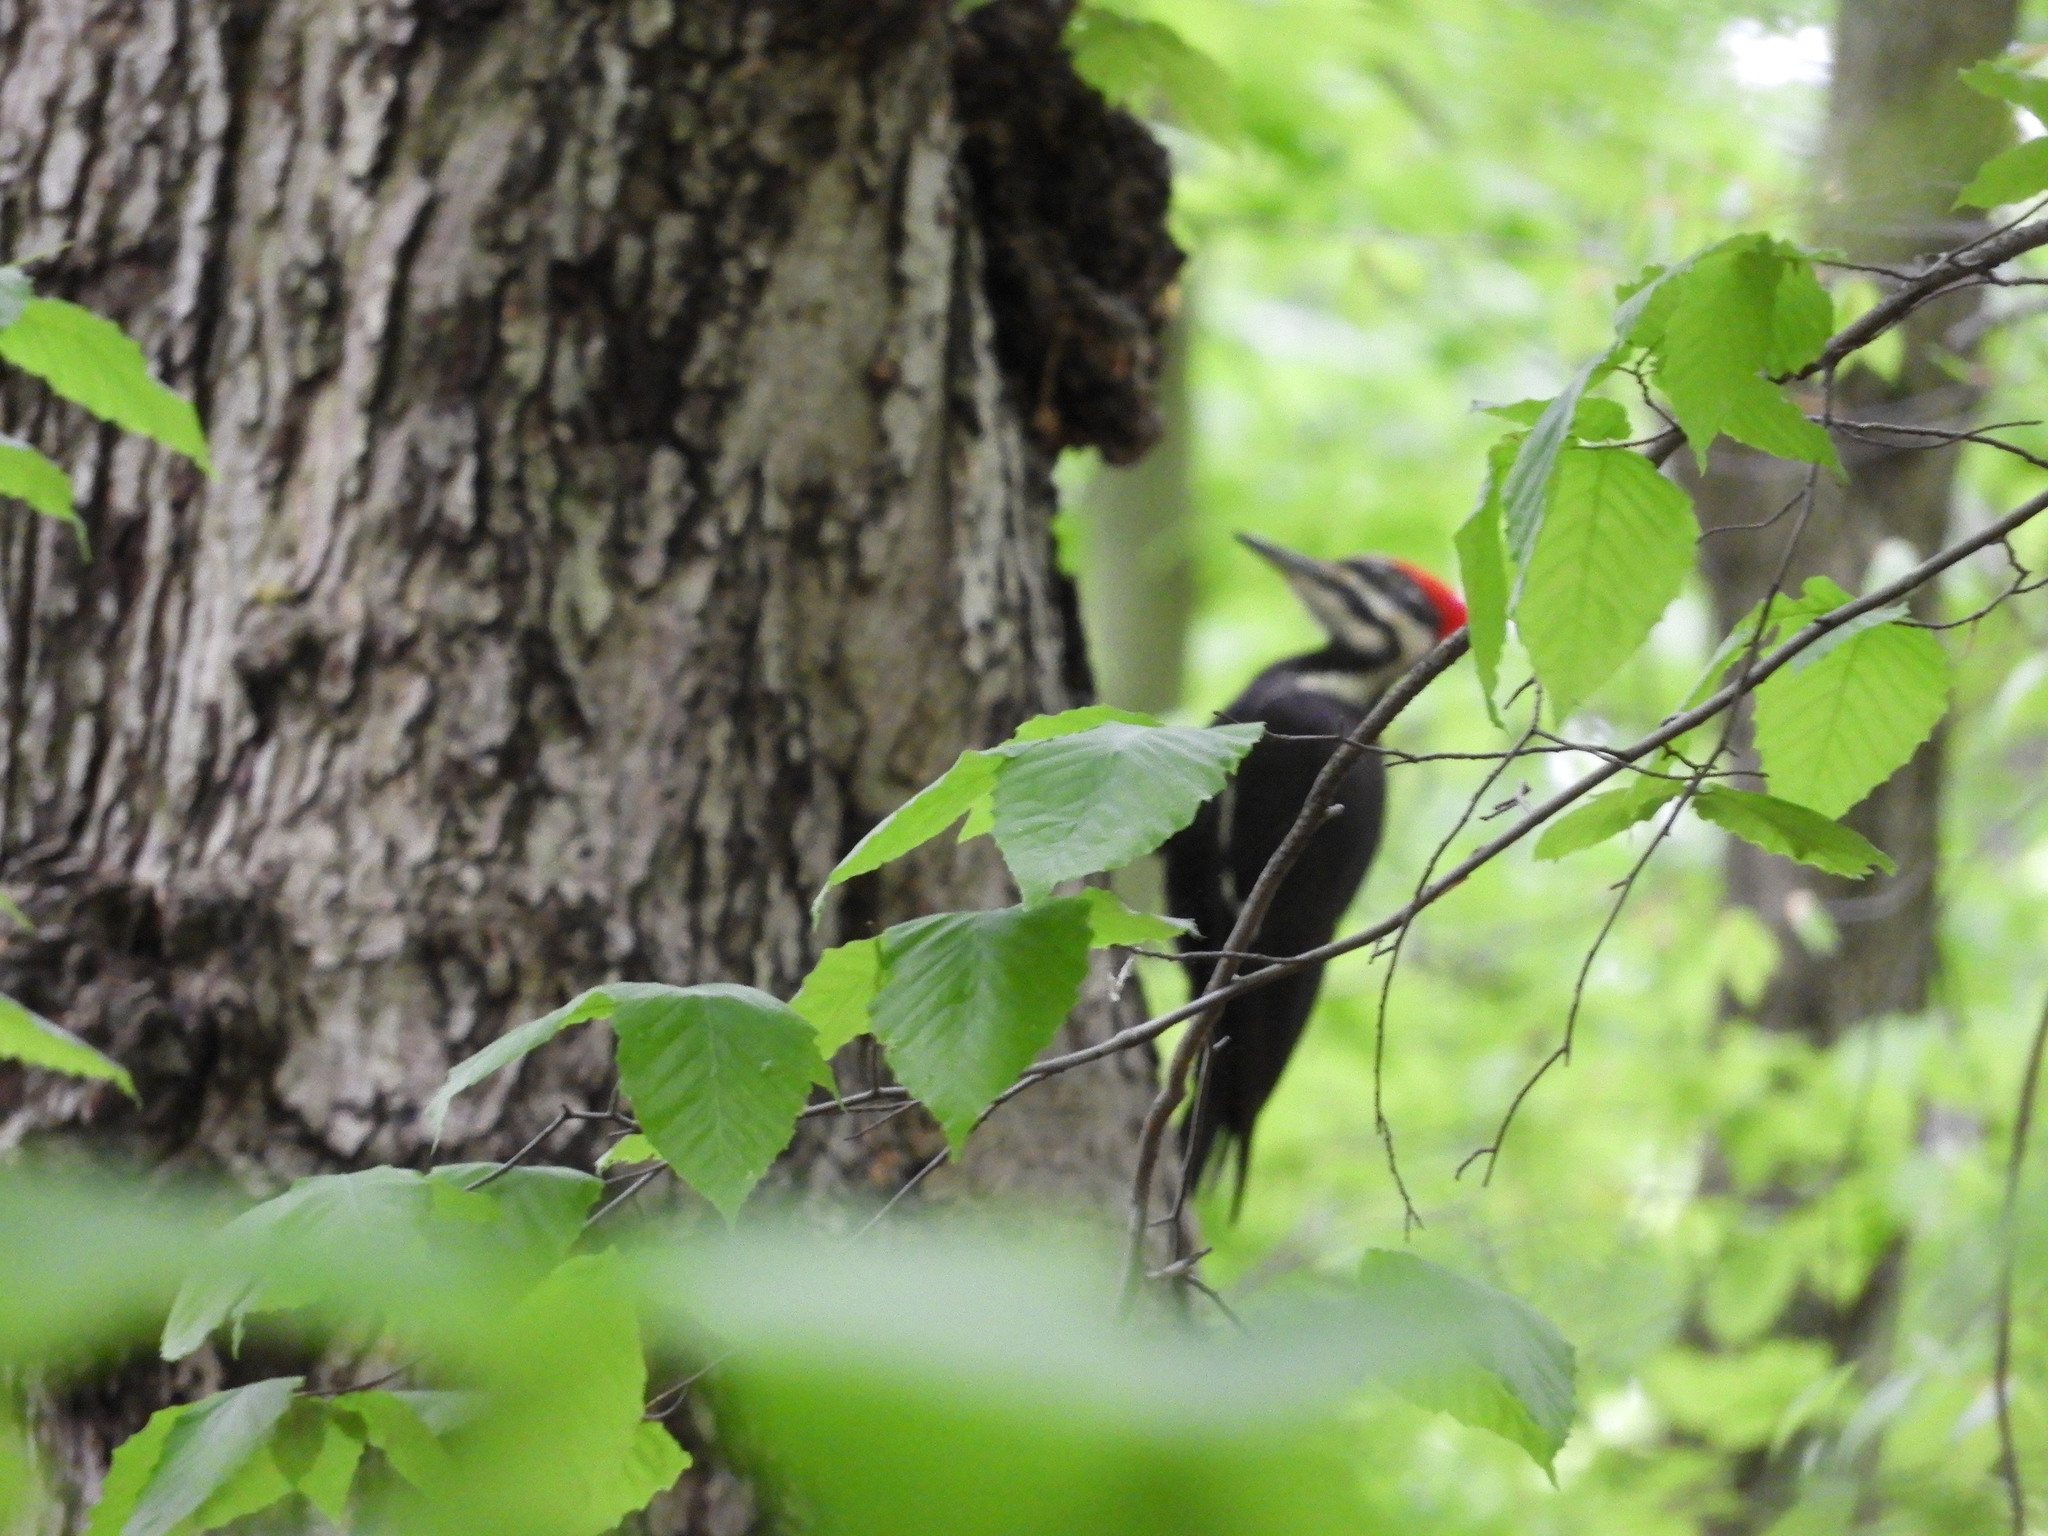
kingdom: Animalia
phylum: Chordata
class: Aves
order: Piciformes
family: Picidae
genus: Dryocopus
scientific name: Dryocopus pileatus
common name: Pileated woodpecker
